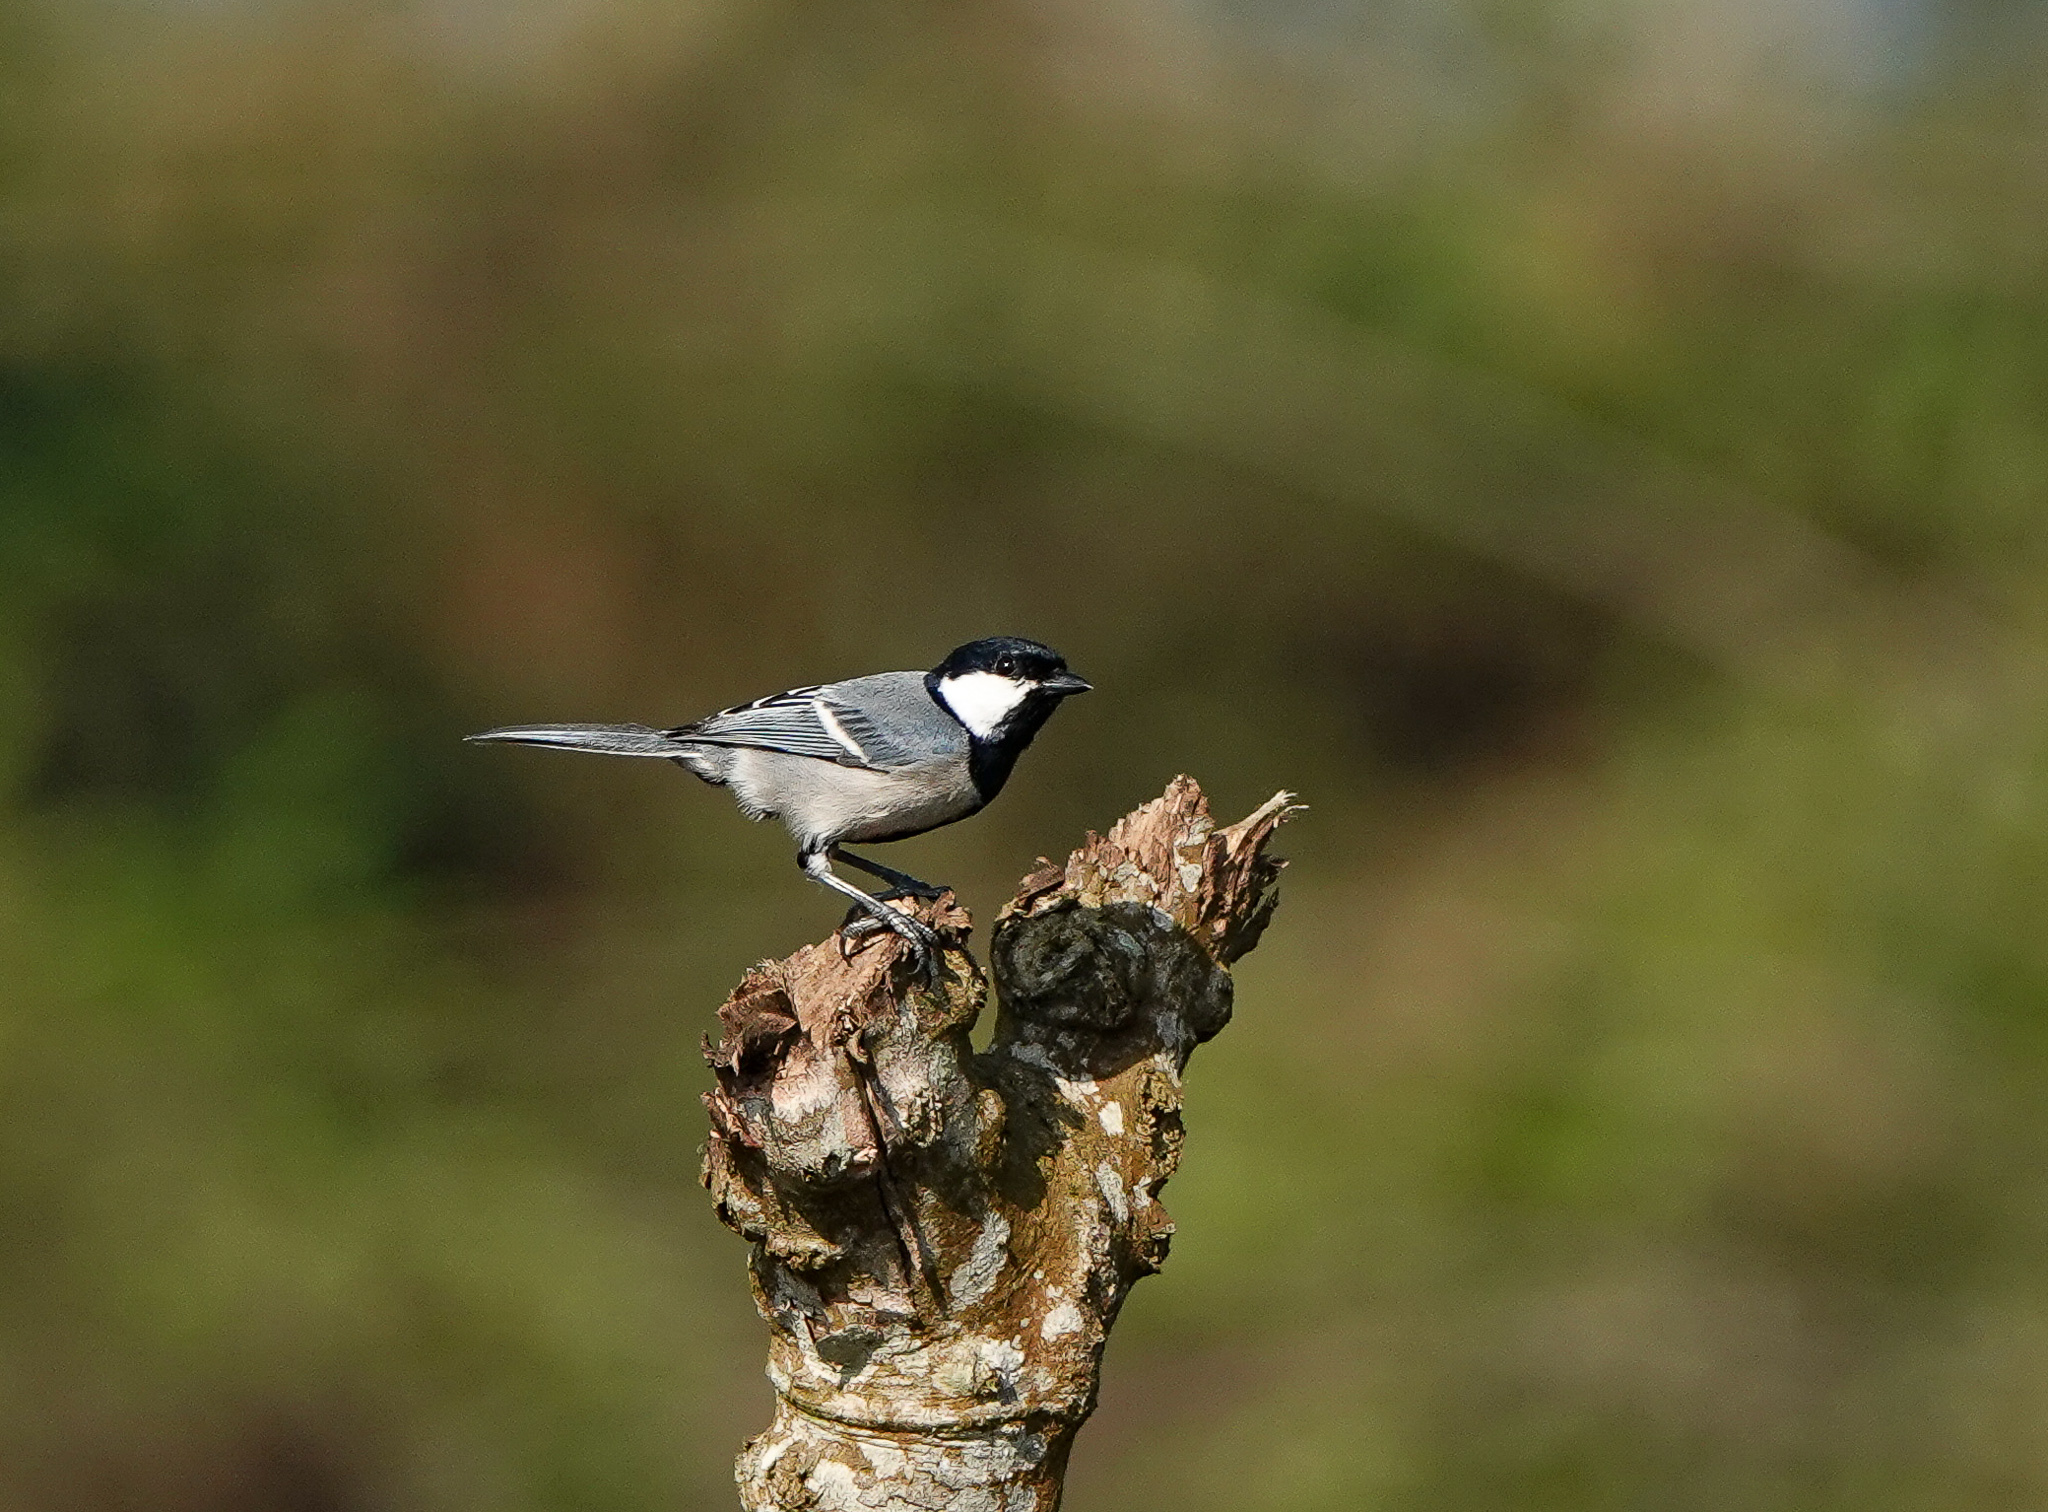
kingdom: Animalia
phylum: Chordata
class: Aves
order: Passeriformes
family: Paridae
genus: Parus
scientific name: Parus cinereus
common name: Cinereous tit
